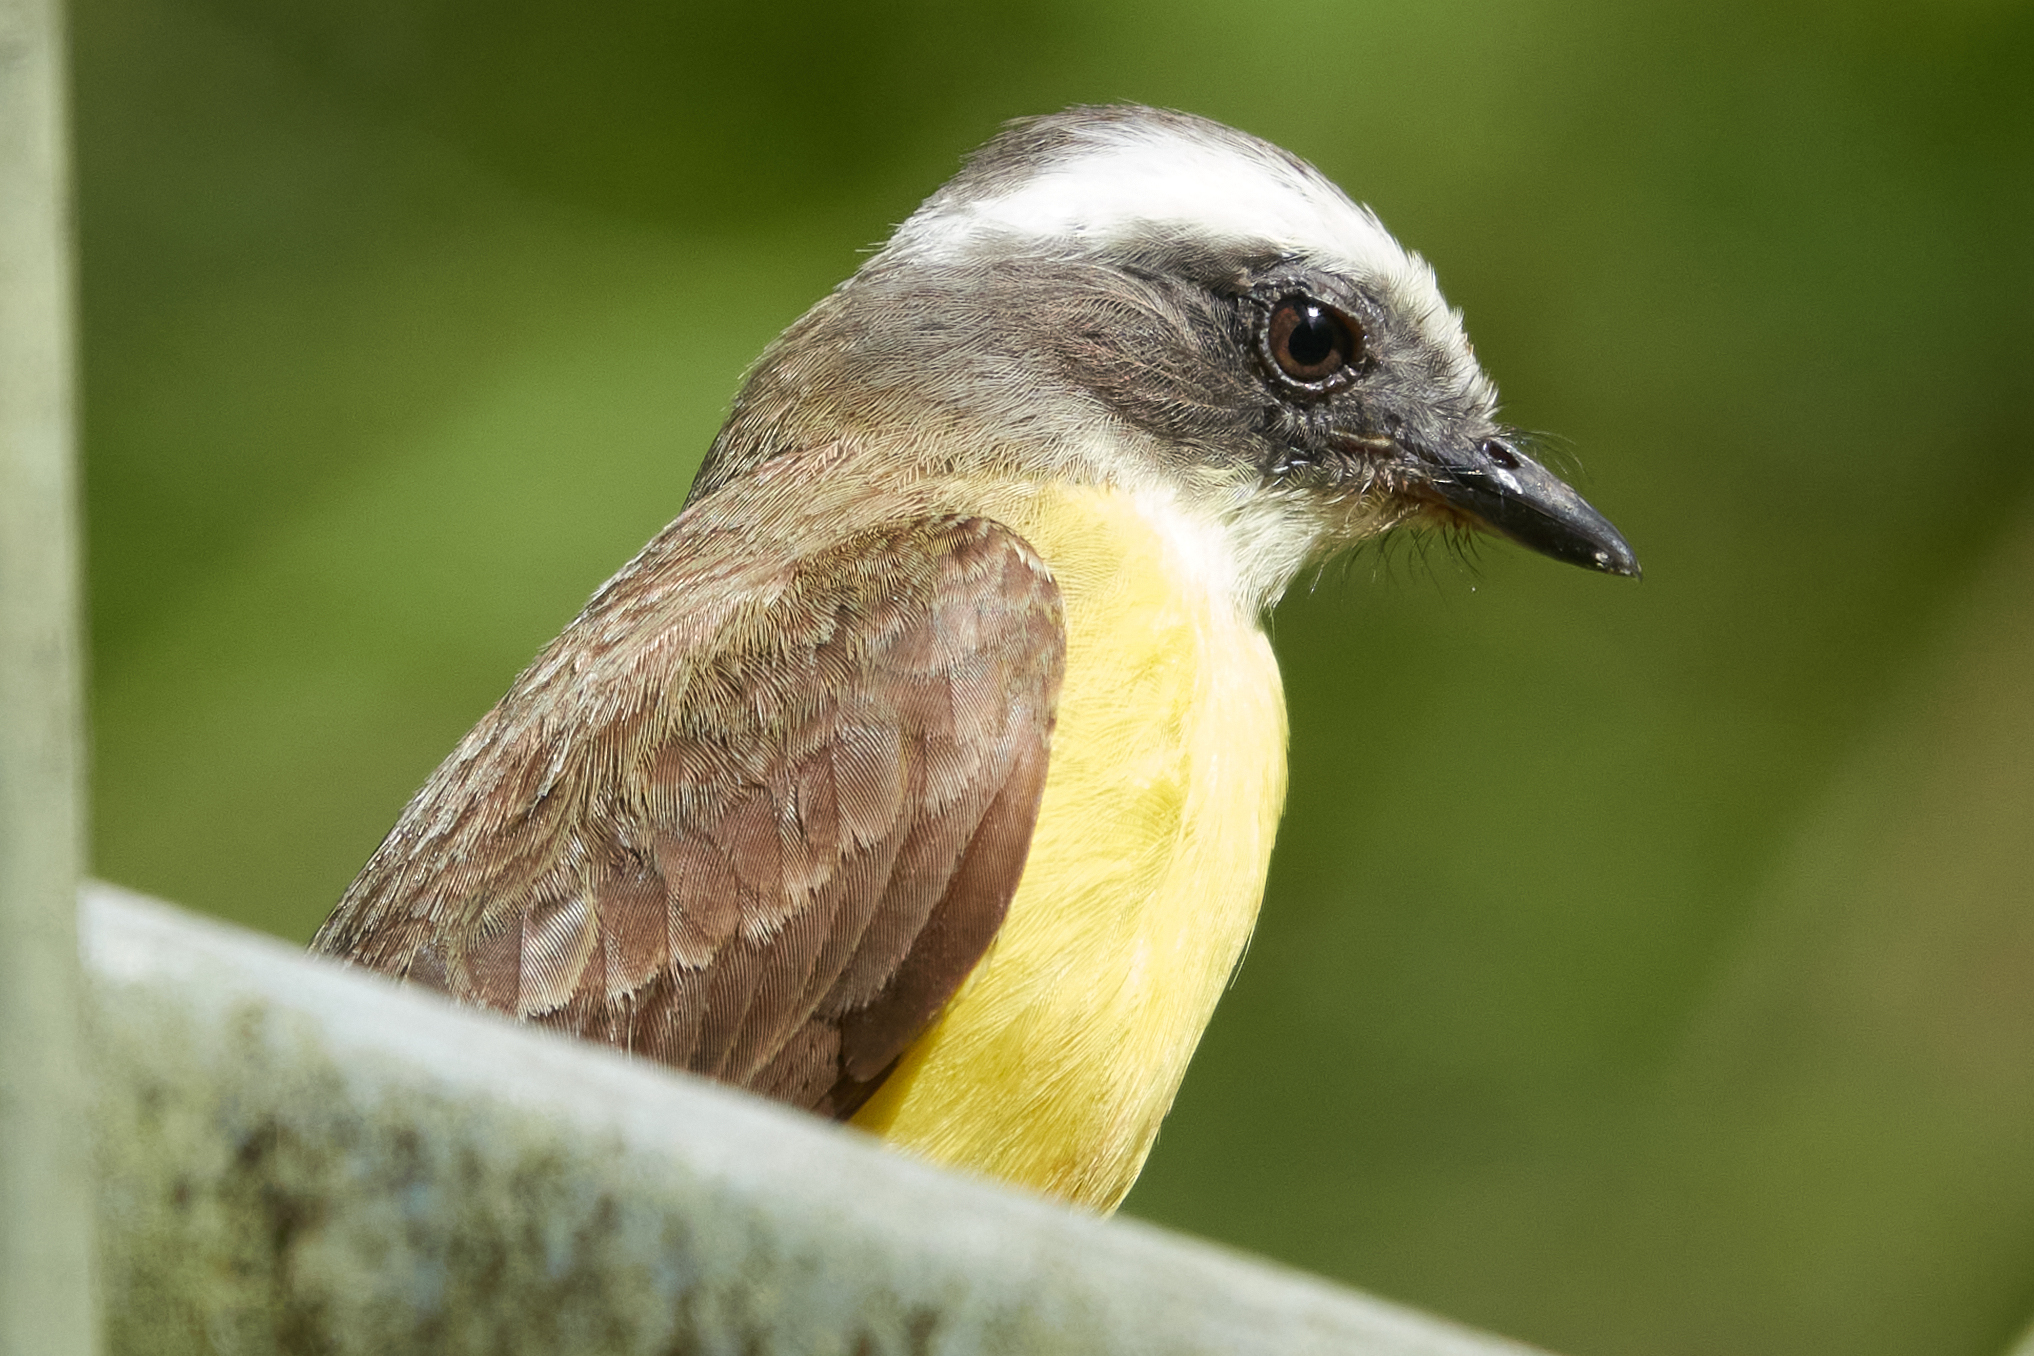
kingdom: Animalia
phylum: Chordata
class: Aves
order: Passeriformes
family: Tyrannidae
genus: Myiozetetes
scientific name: Myiozetetes similis
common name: Social flycatcher
